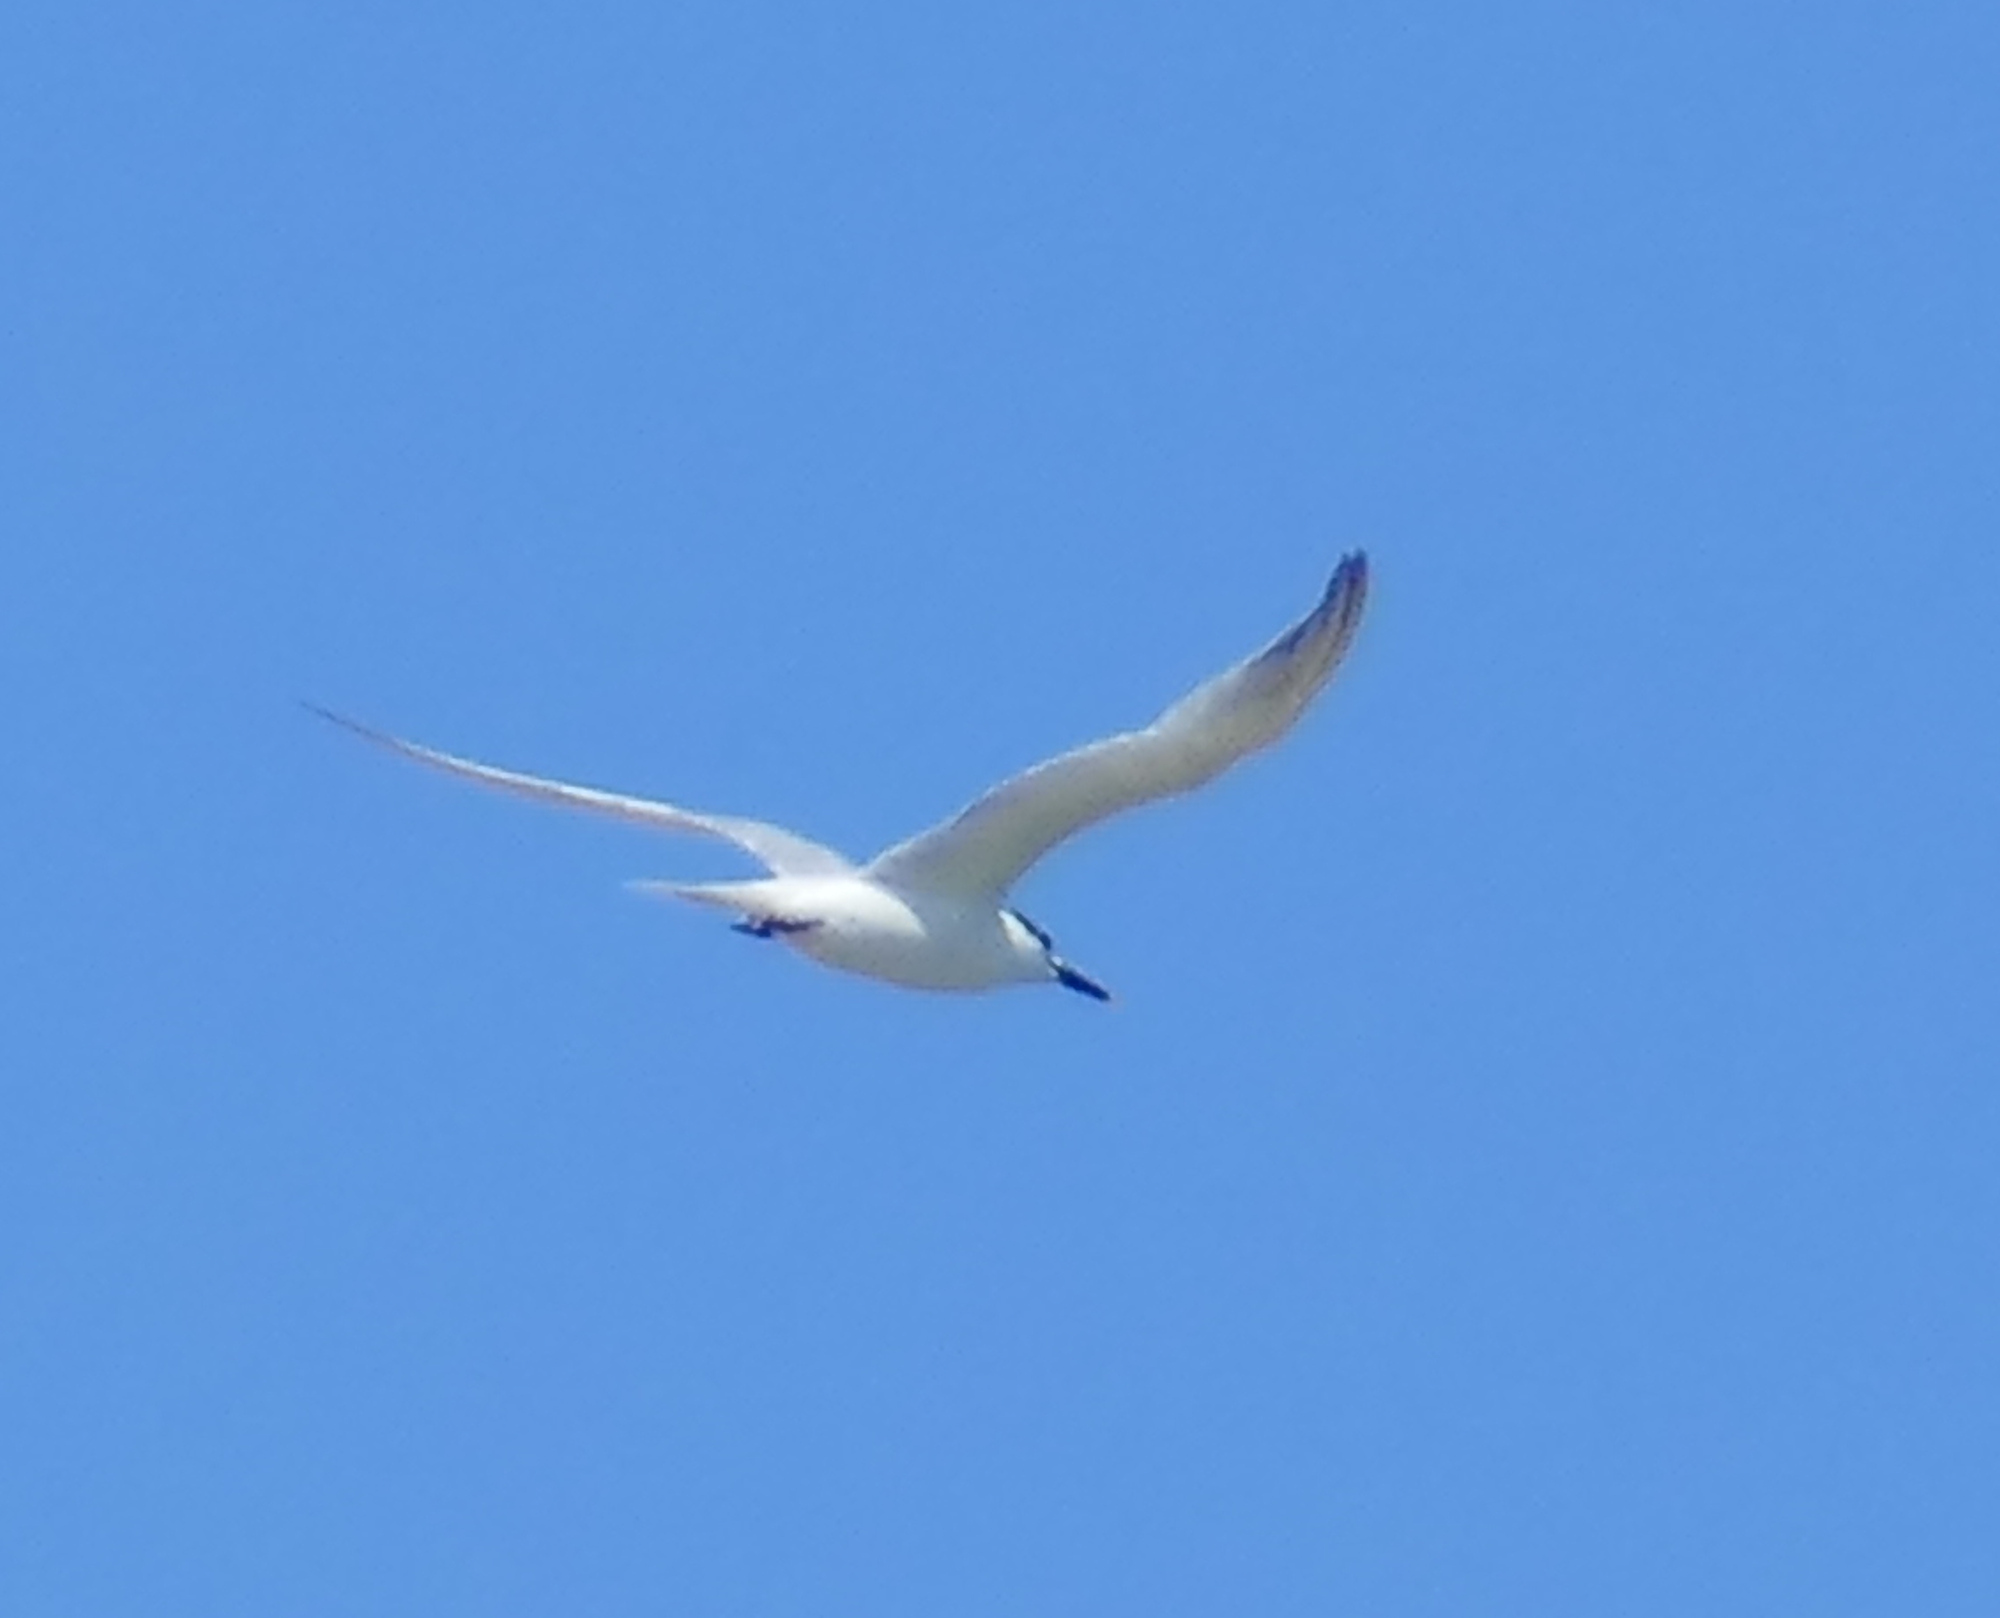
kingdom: Animalia
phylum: Chordata
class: Aves
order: Charadriiformes
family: Laridae
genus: Thalasseus
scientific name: Thalasseus sandvicensis
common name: Sandwich tern
